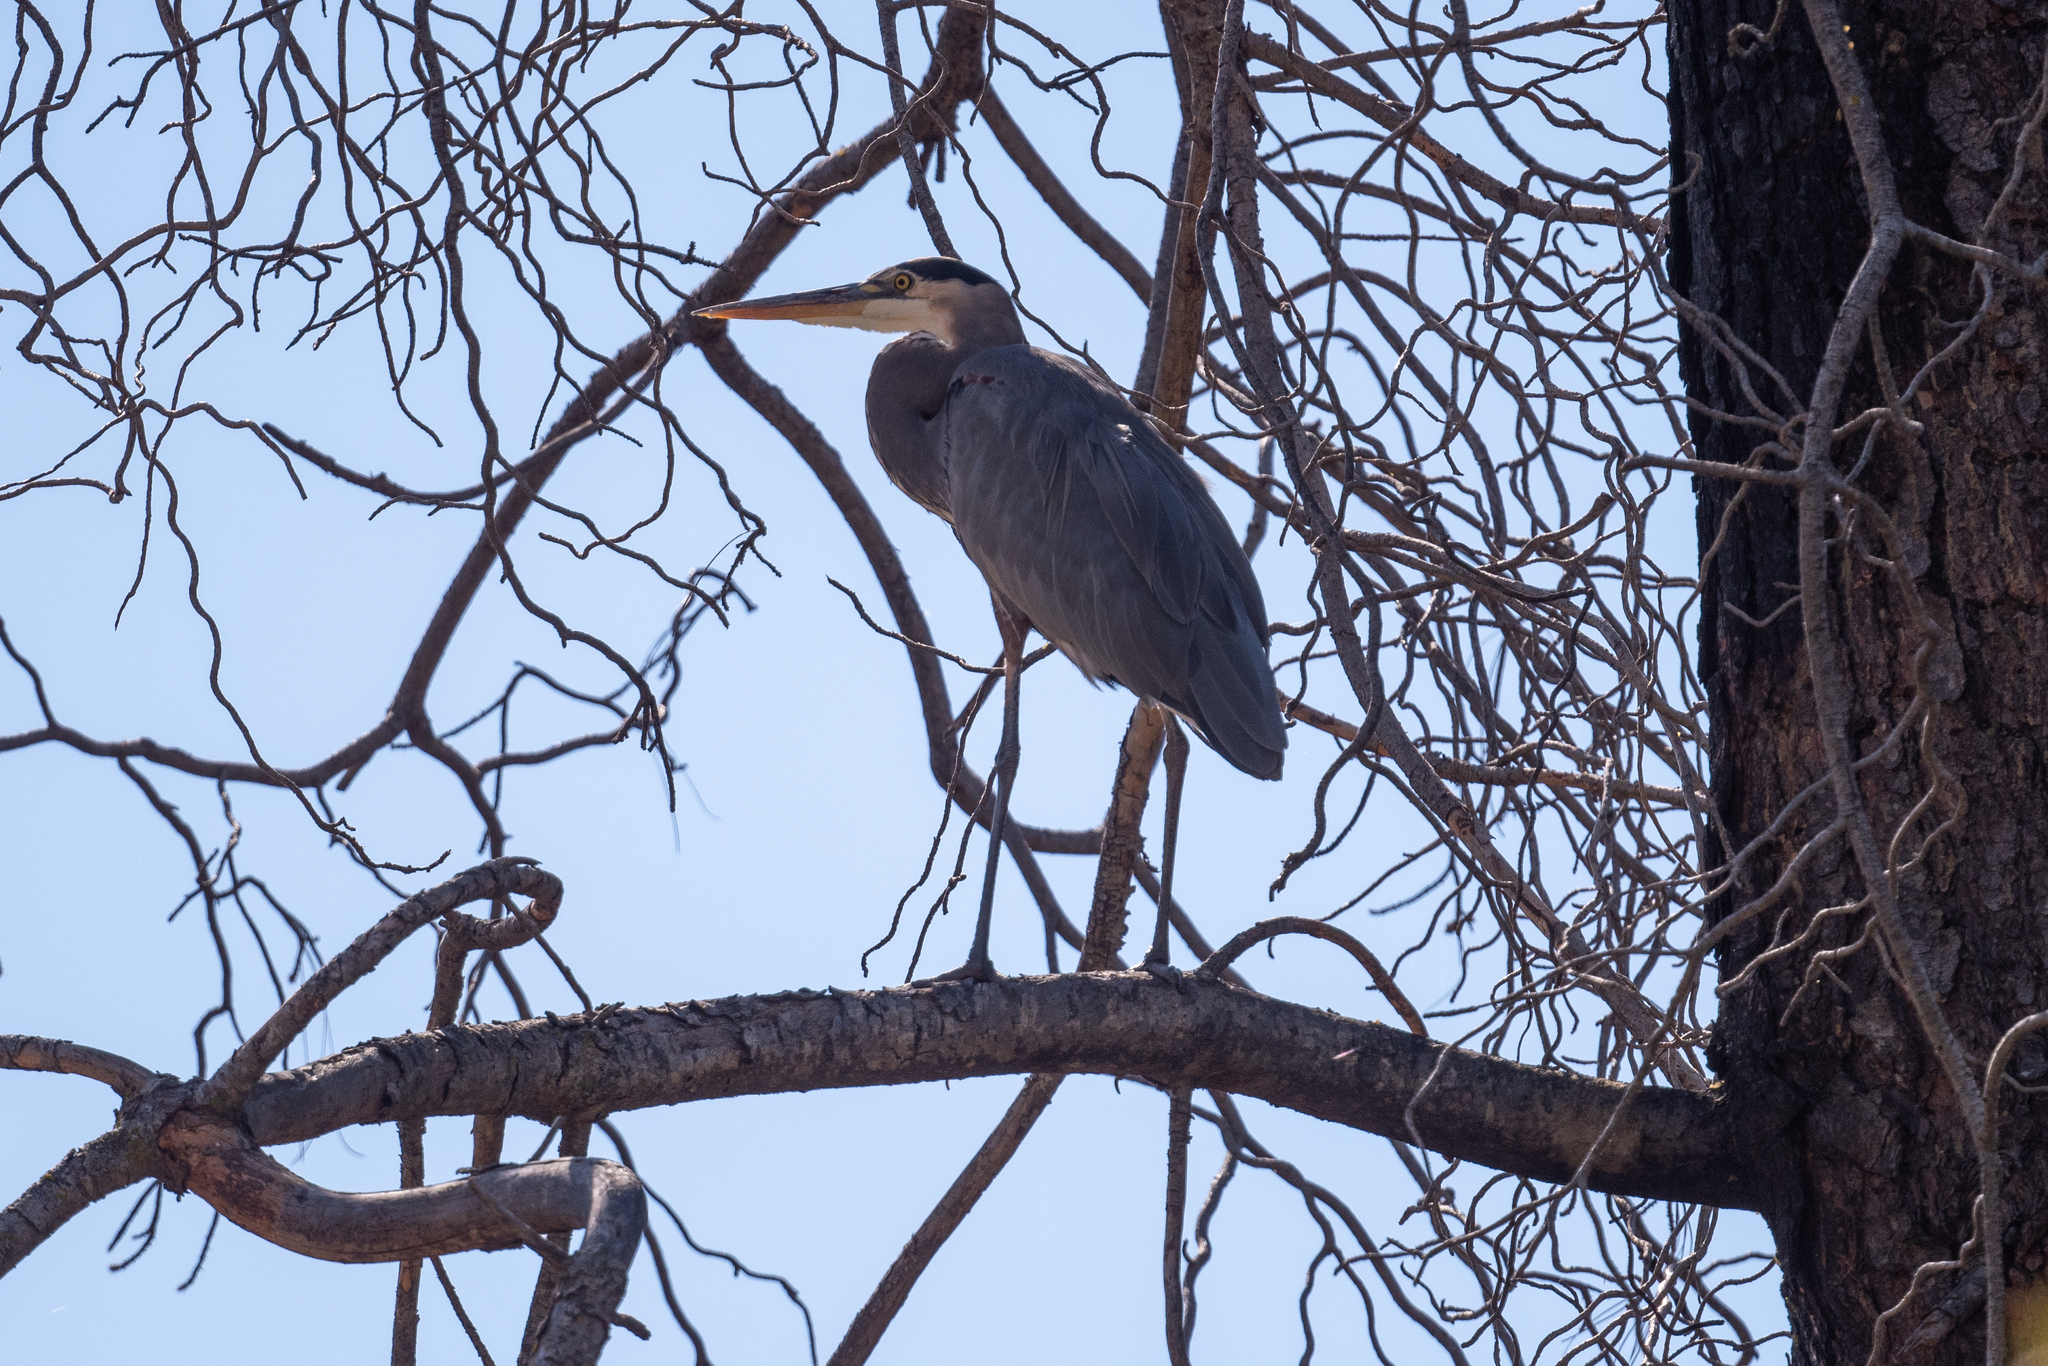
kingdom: Animalia
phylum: Chordata
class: Aves
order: Pelecaniformes
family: Ardeidae
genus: Ardea
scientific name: Ardea herodias
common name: Great blue heron
